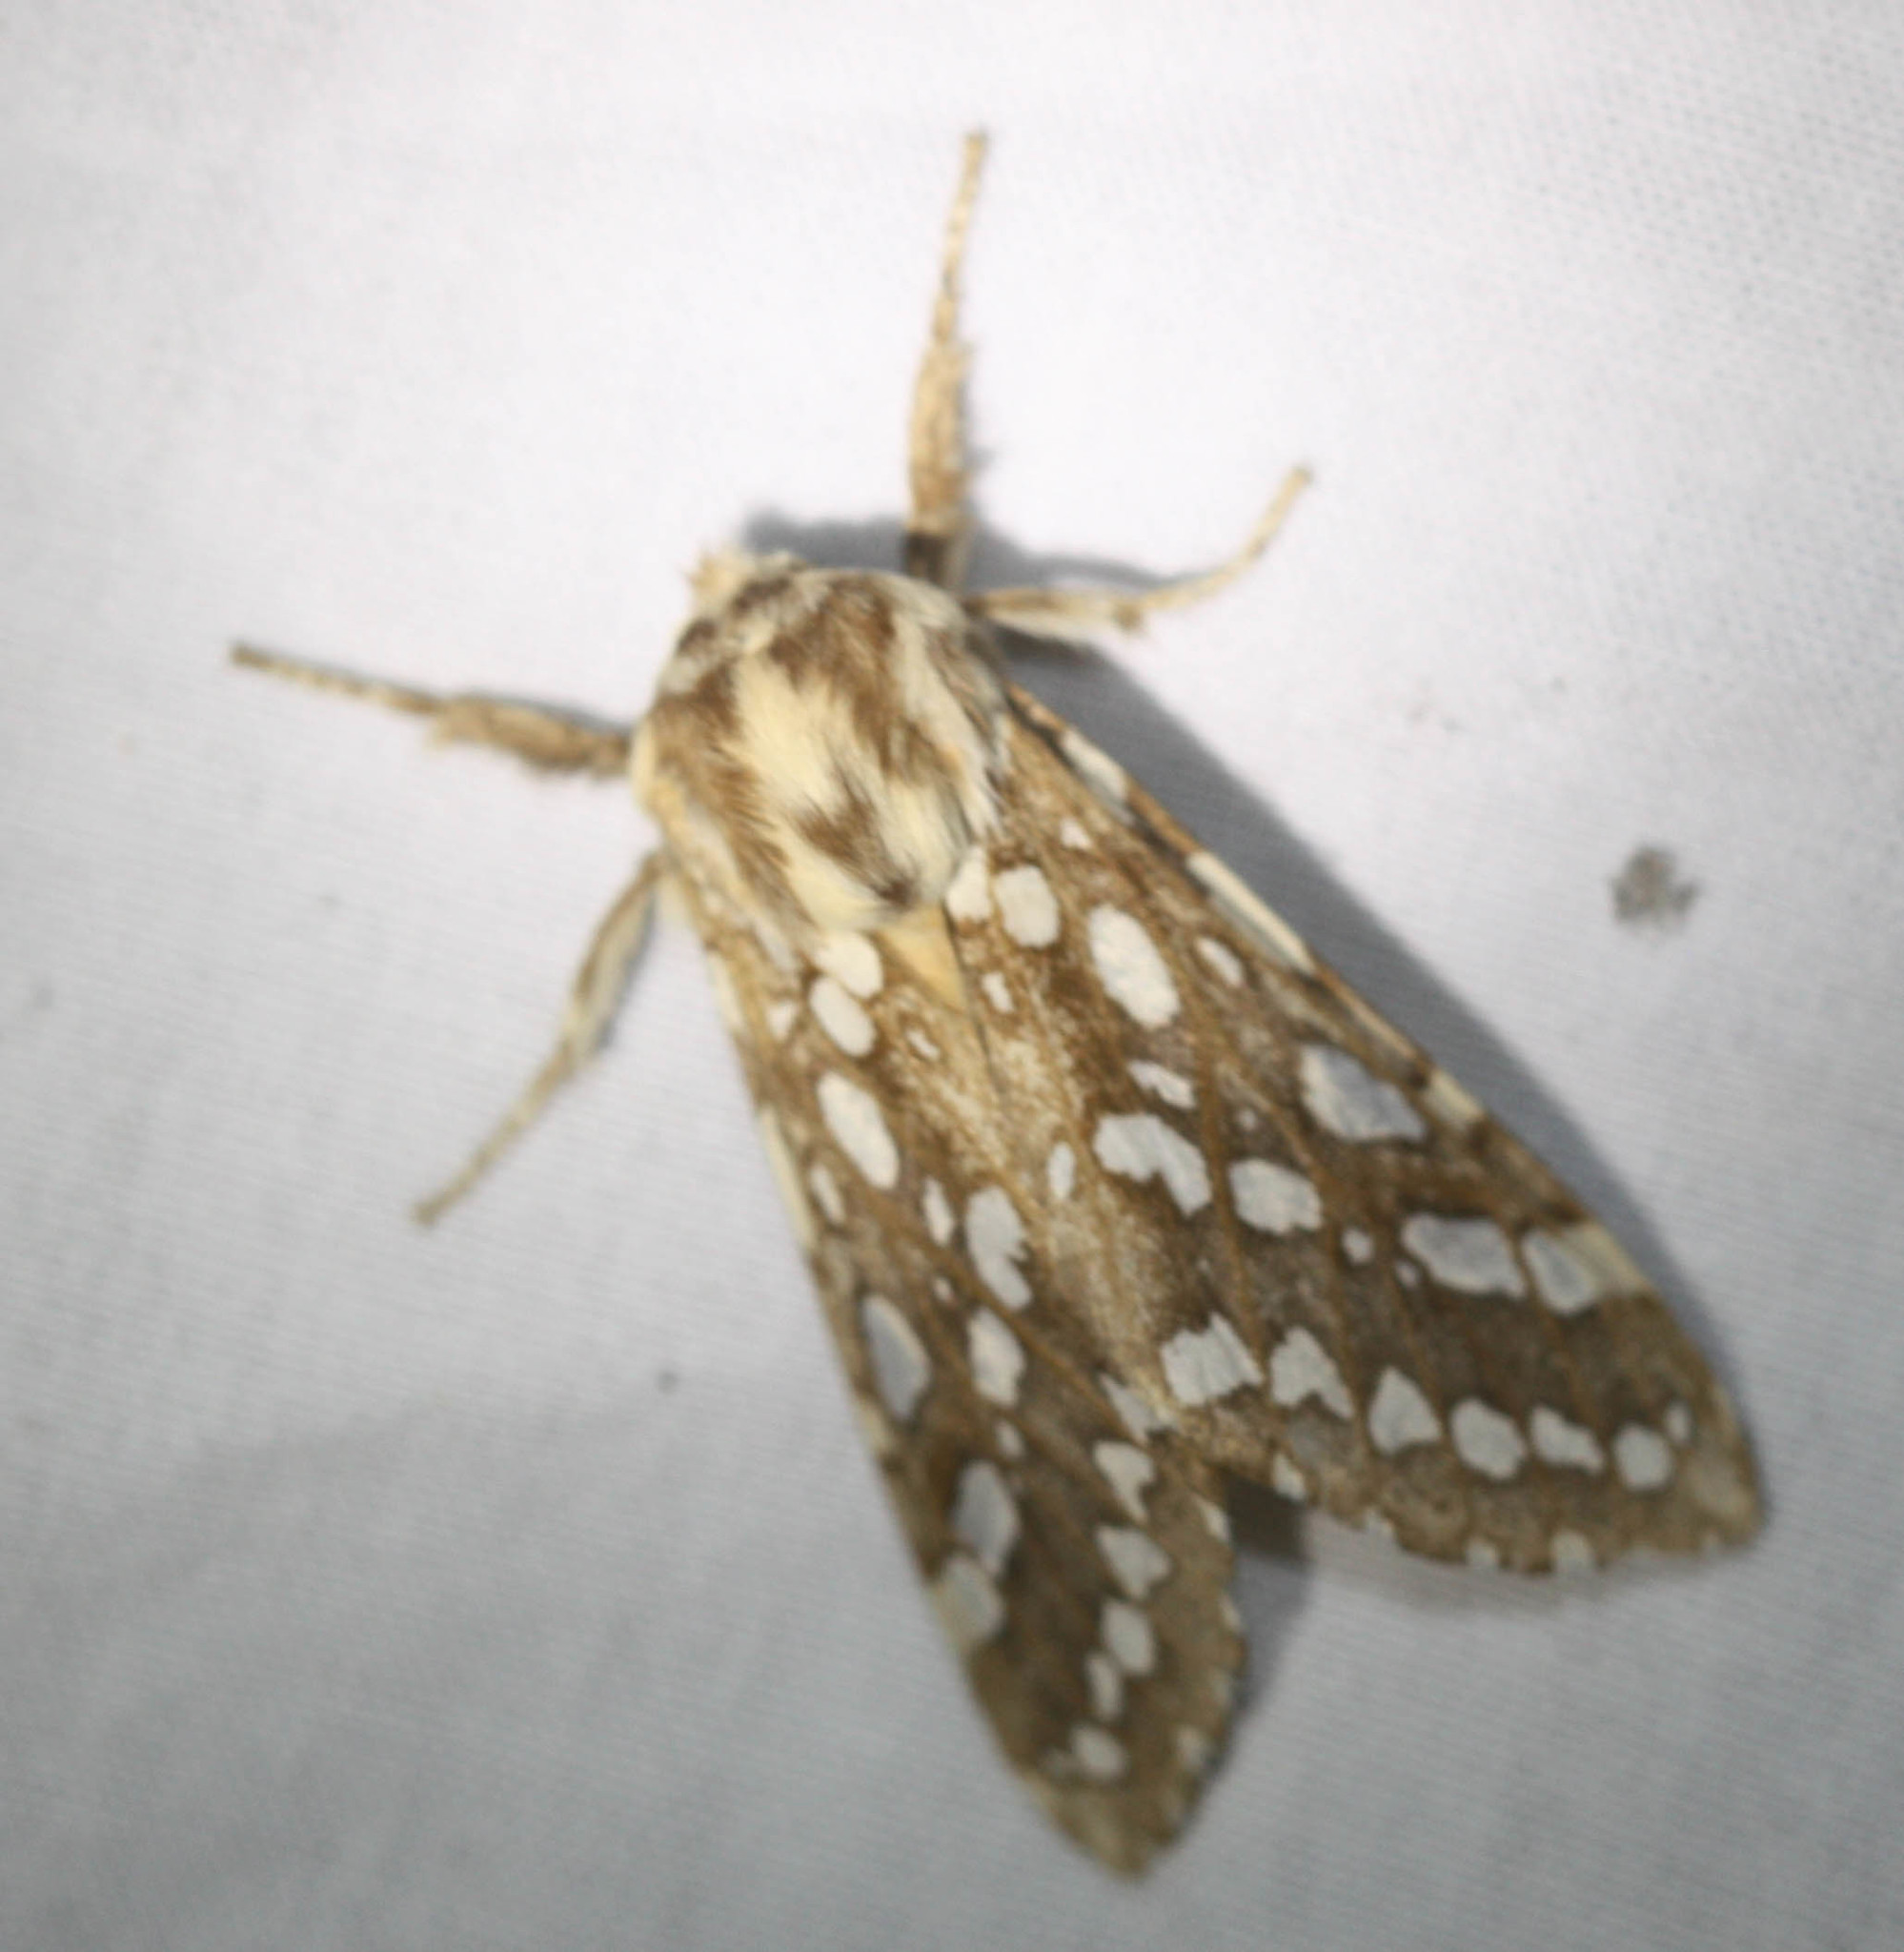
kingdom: Animalia
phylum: Arthropoda
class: Insecta
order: Lepidoptera
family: Erebidae
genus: Lophocampa
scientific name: Lophocampa argentata
